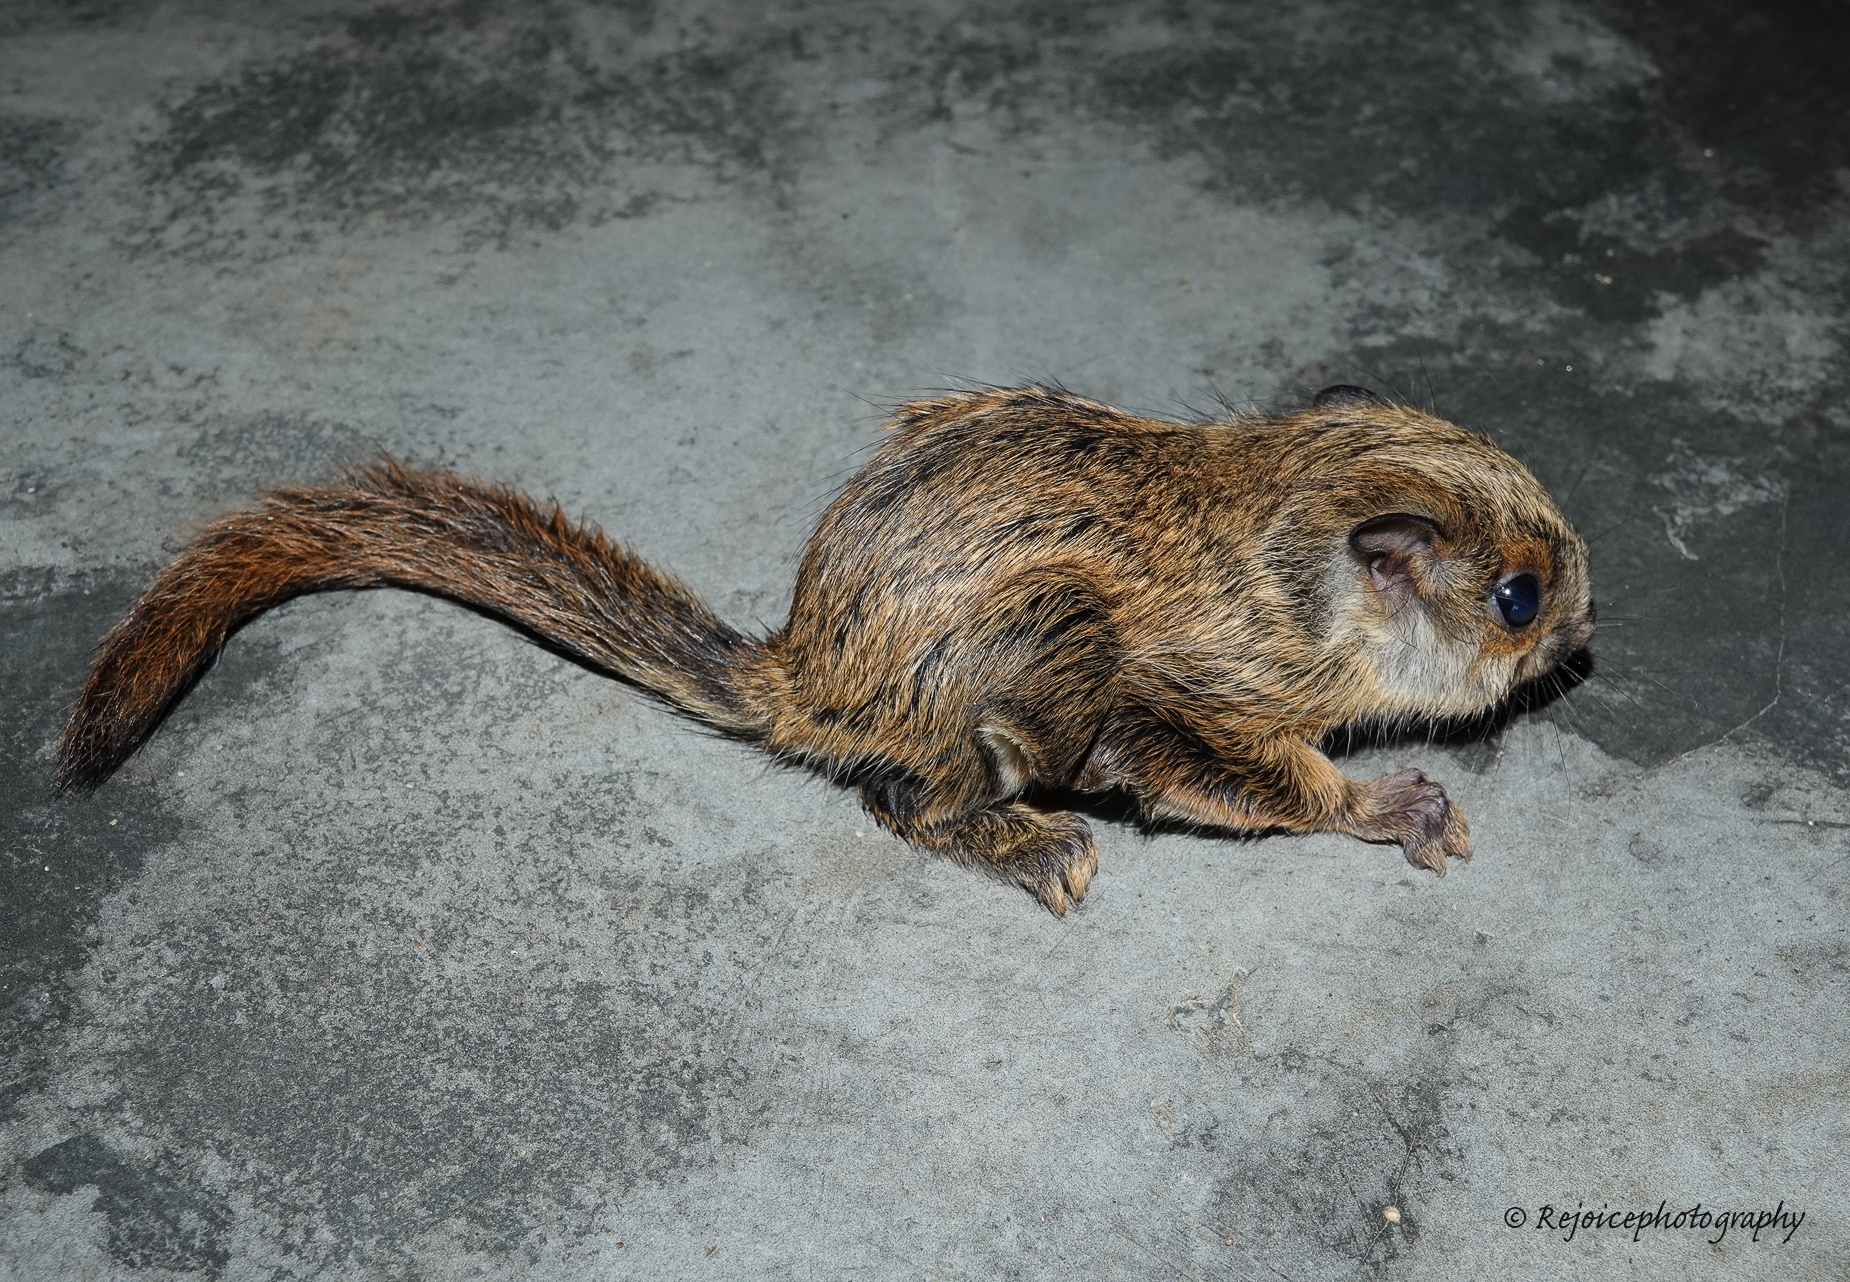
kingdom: Animalia
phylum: Chordata
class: Mammalia
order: Rodentia
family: Sciuridae
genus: Hylopetes
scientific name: Hylopetes alboniger
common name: Particolored flying squirrel
